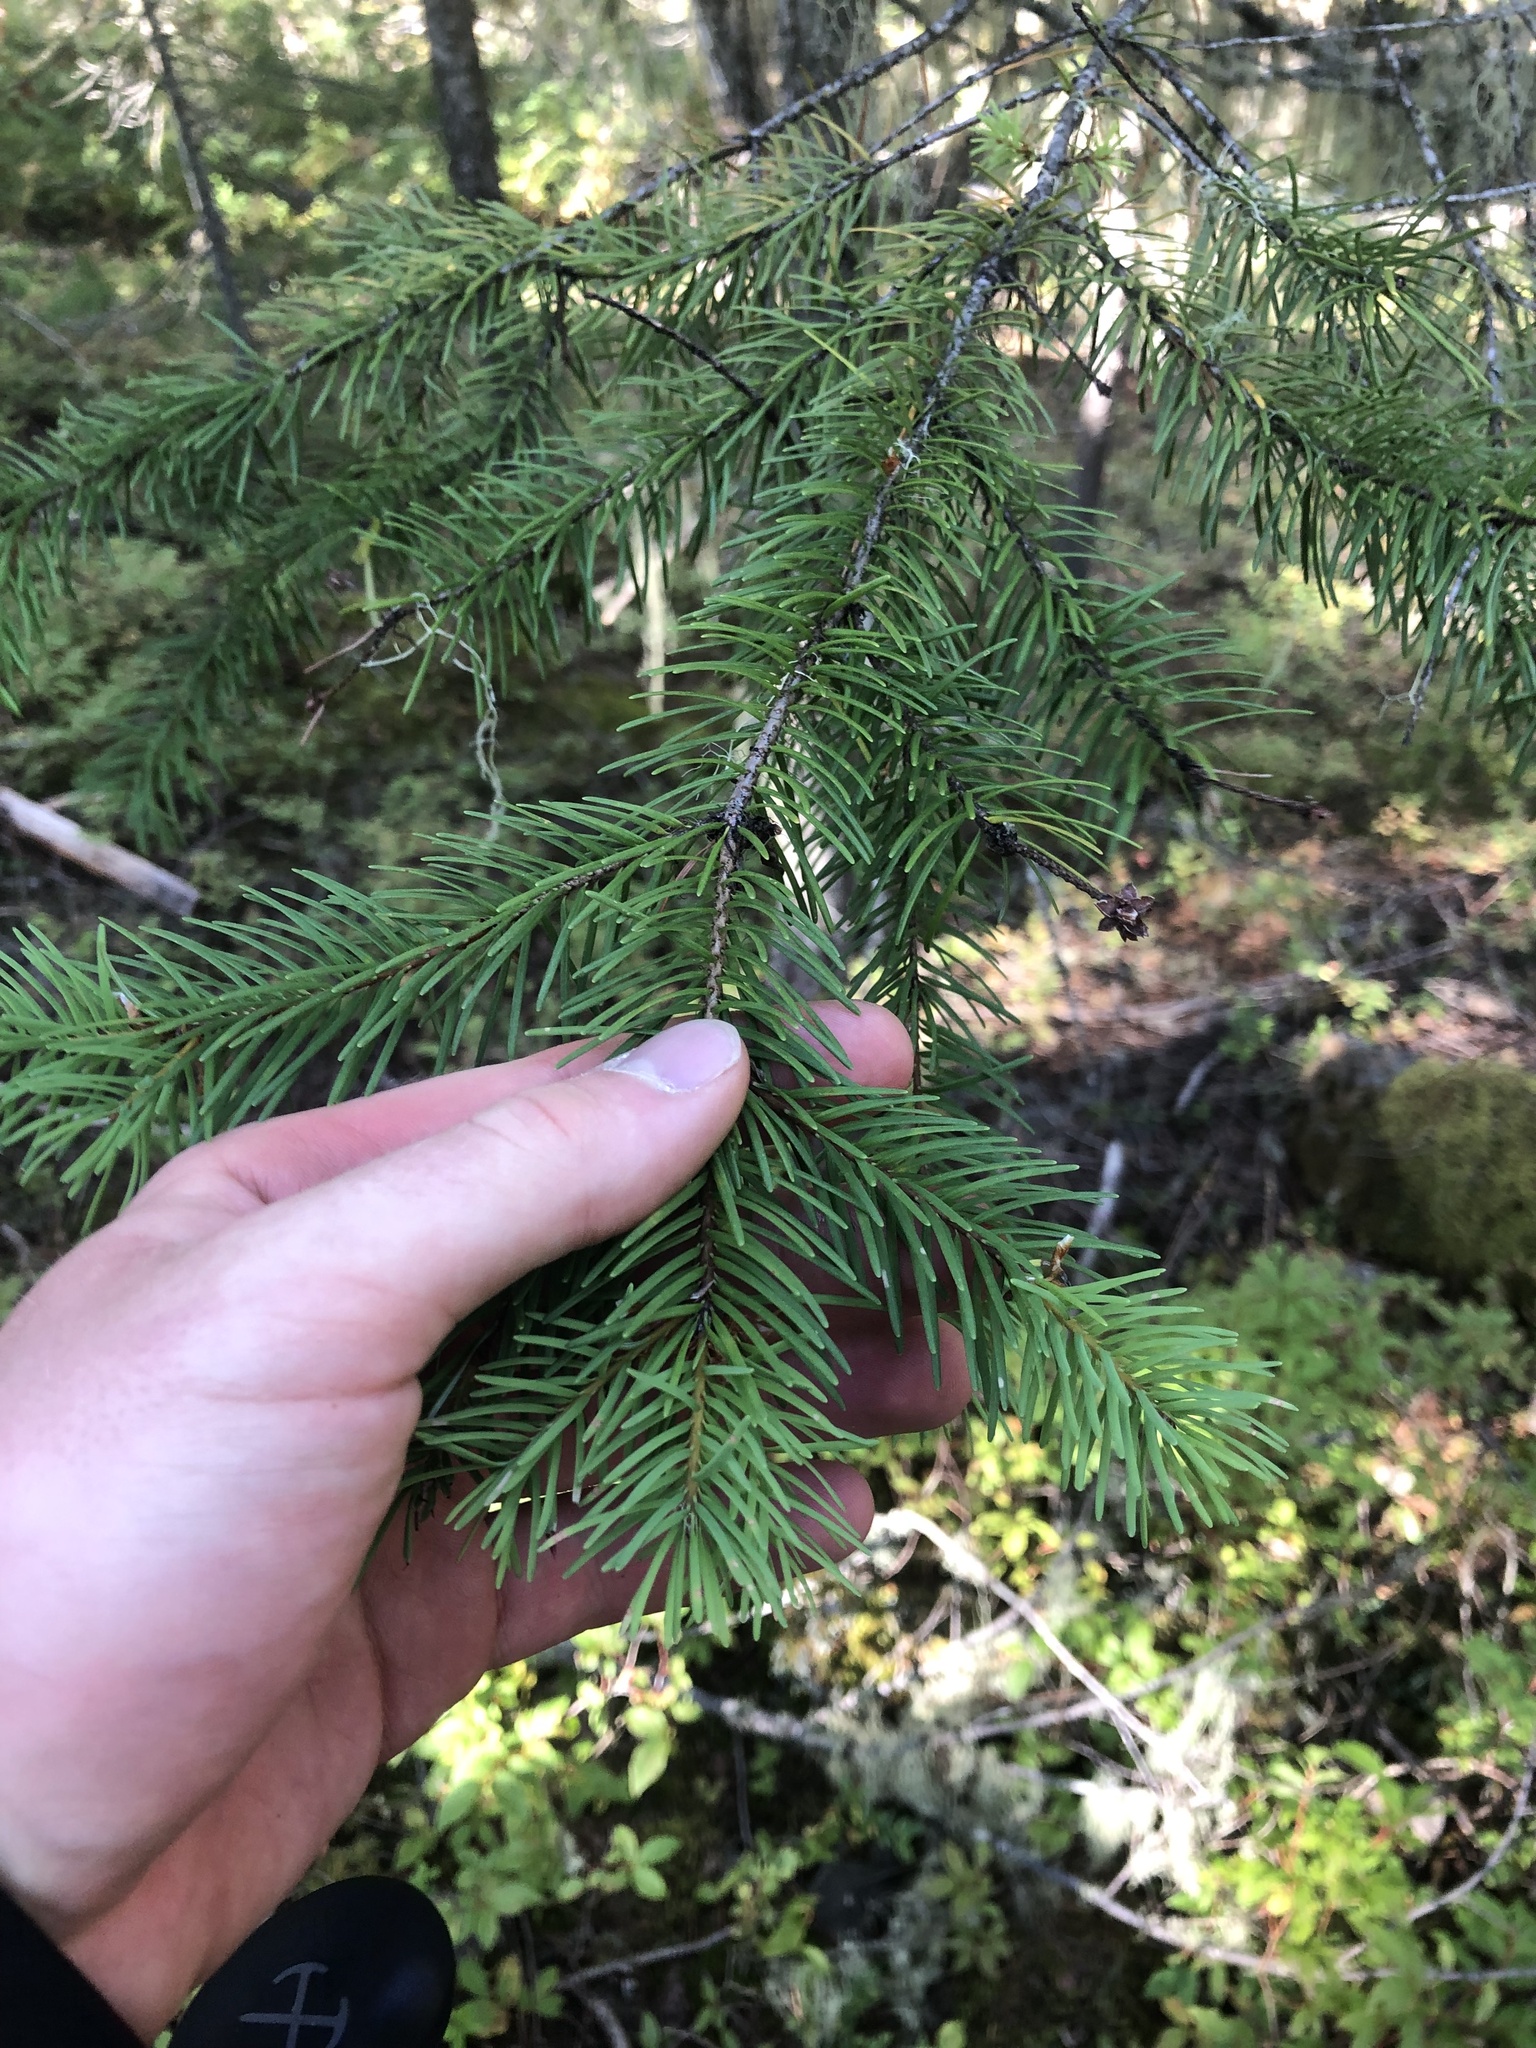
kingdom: Plantae
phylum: Tracheophyta
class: Pinopsida
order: Pinales
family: Pinaceae
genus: Pseudotsuga
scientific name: Pseudotsuga menziesii
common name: Douglas fir
